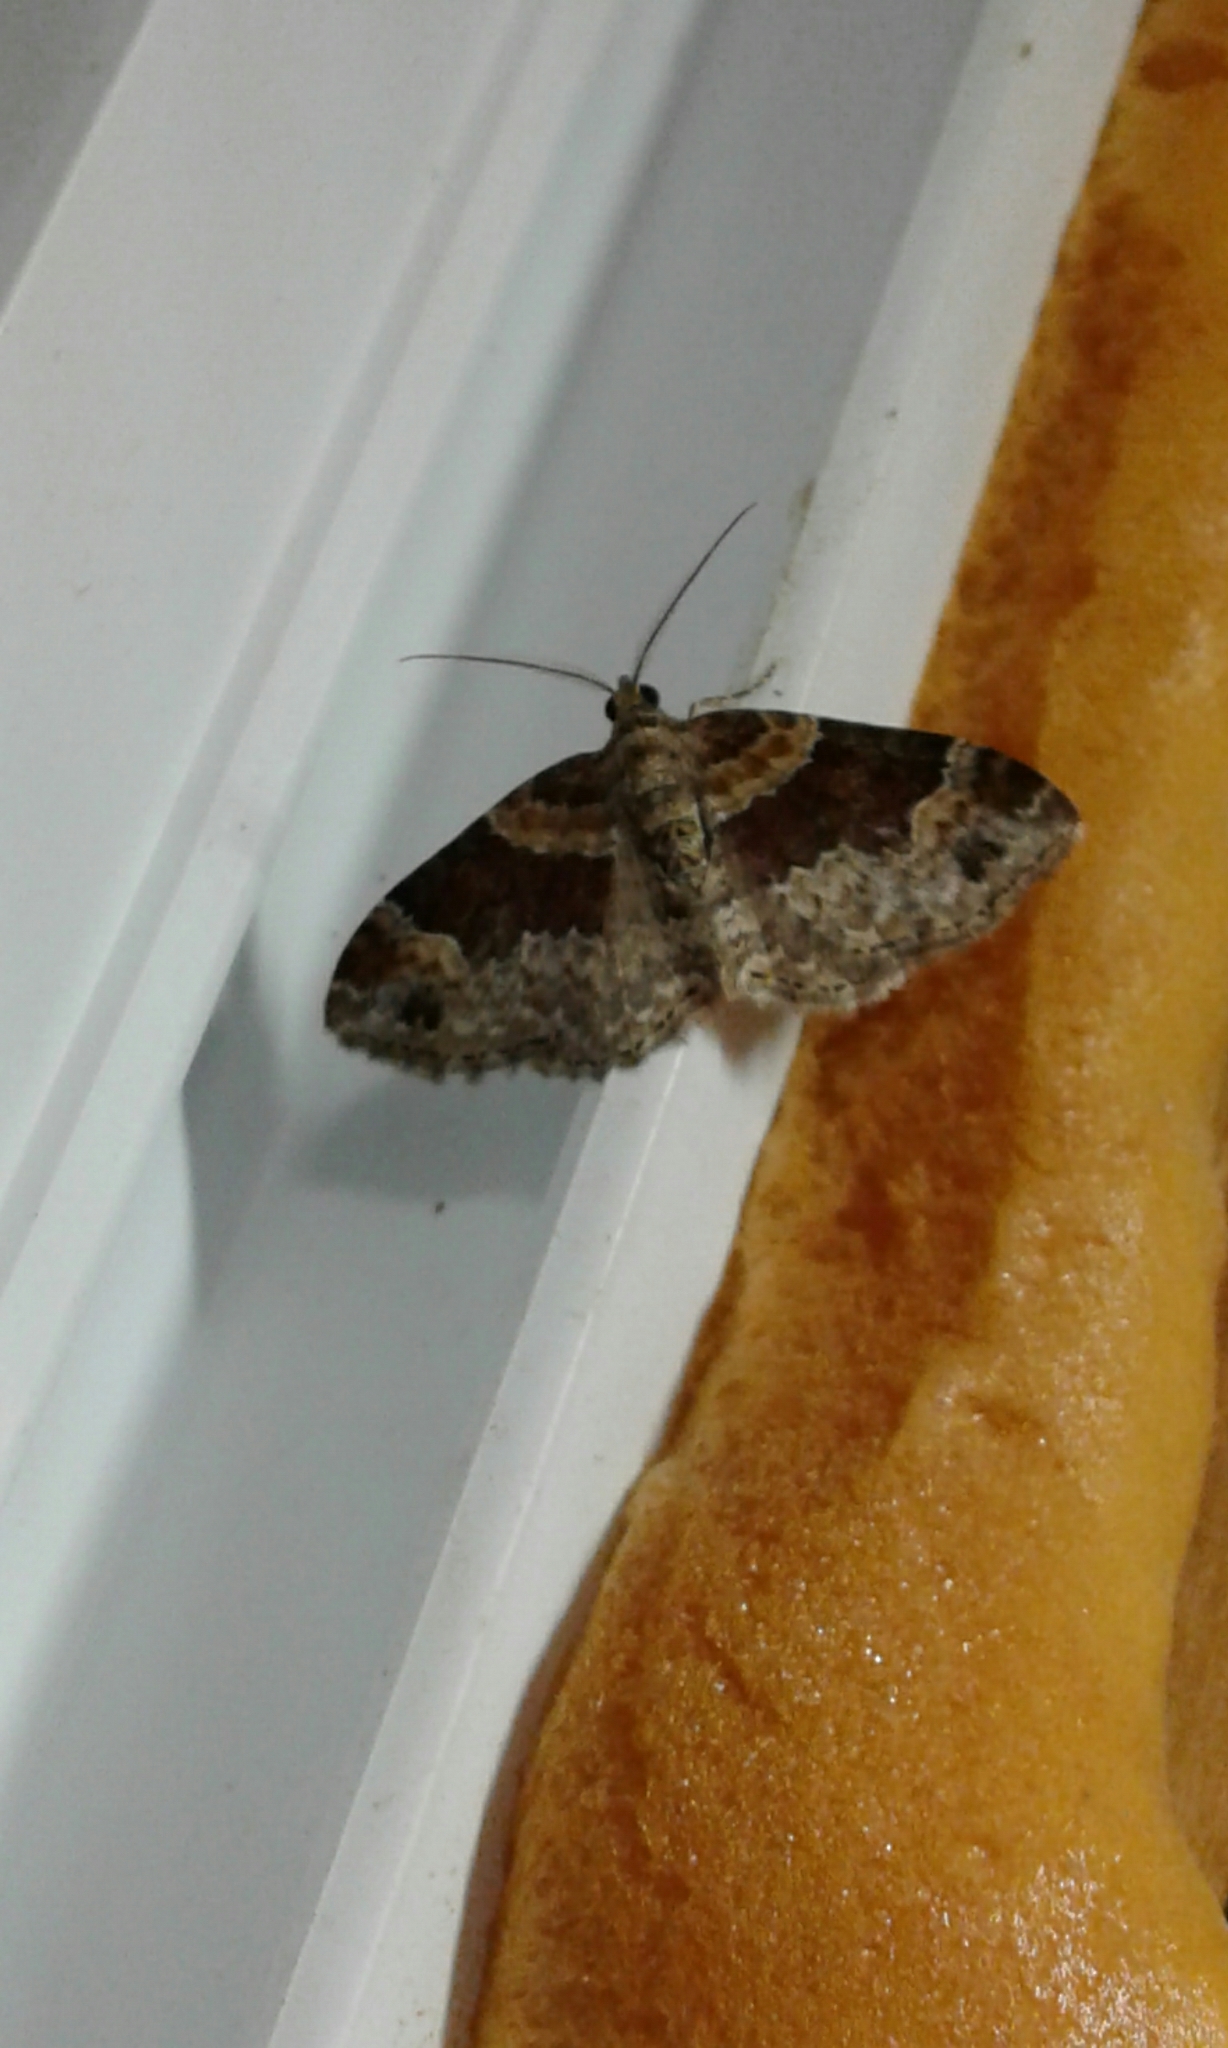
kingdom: Animalia
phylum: Arthropoda
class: Insecta
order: Lepidoptera
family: Geometridae
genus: Xanthorhoe
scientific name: Xanthorhoe ferrugata
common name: Dark-barred twin-spot carpet
